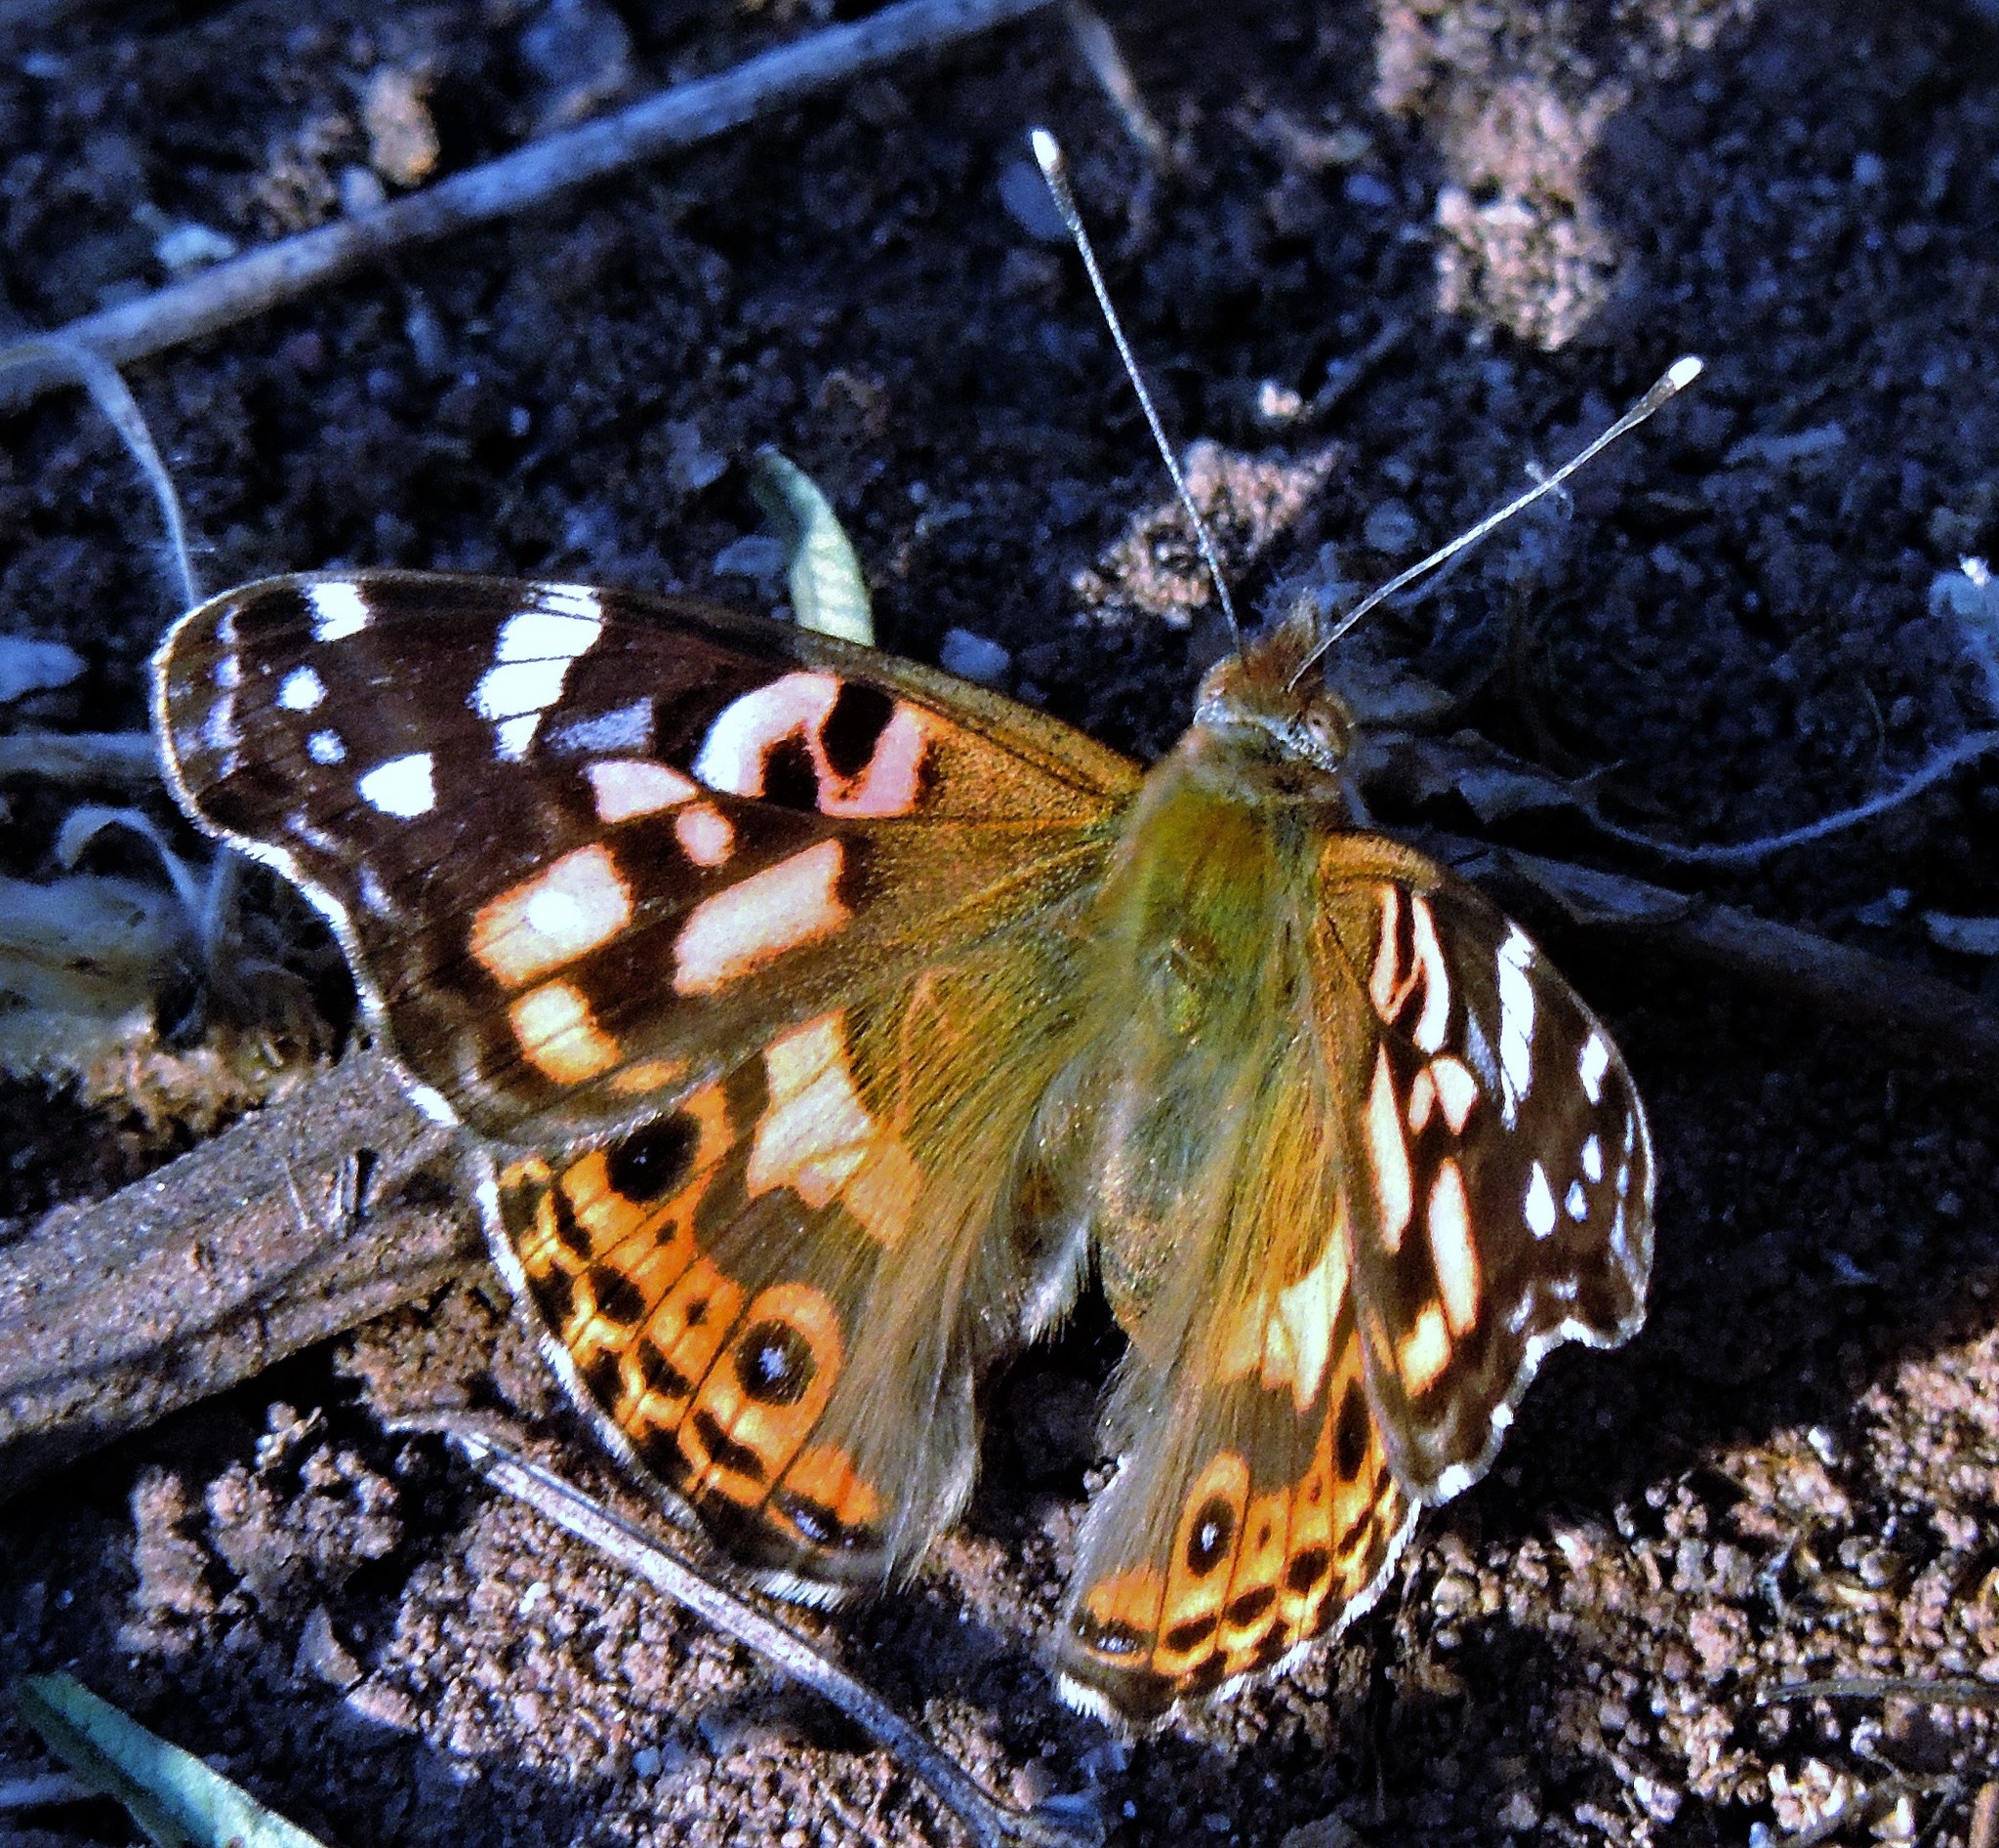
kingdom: Animalia
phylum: Arthropoda
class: Insecta
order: Lepidoptera
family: Nymphalidae
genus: Vanessa
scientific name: Vanessa braziliensis
